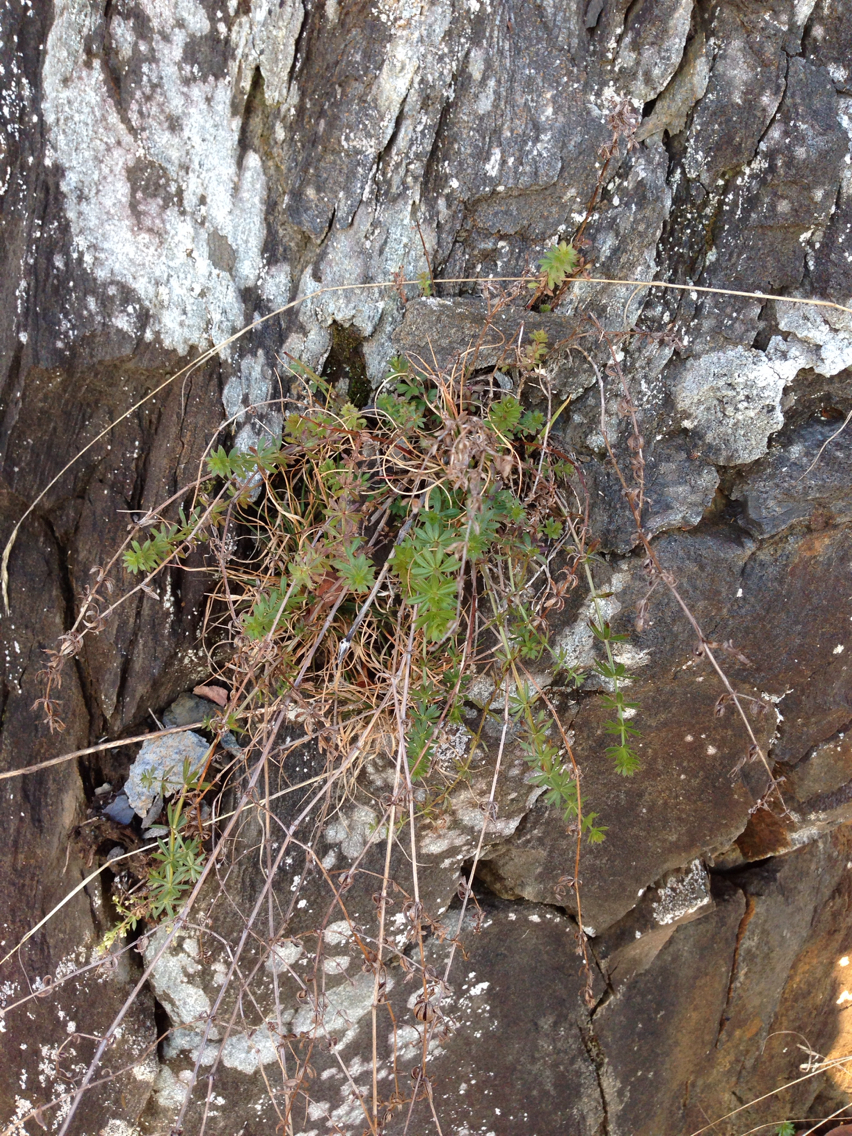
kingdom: Plantae
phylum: Tracheophyta
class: Magnoliopsida
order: Gentianales
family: Rubiaceae
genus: Galium
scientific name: Galium mollugo
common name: Hedge bedstraw
